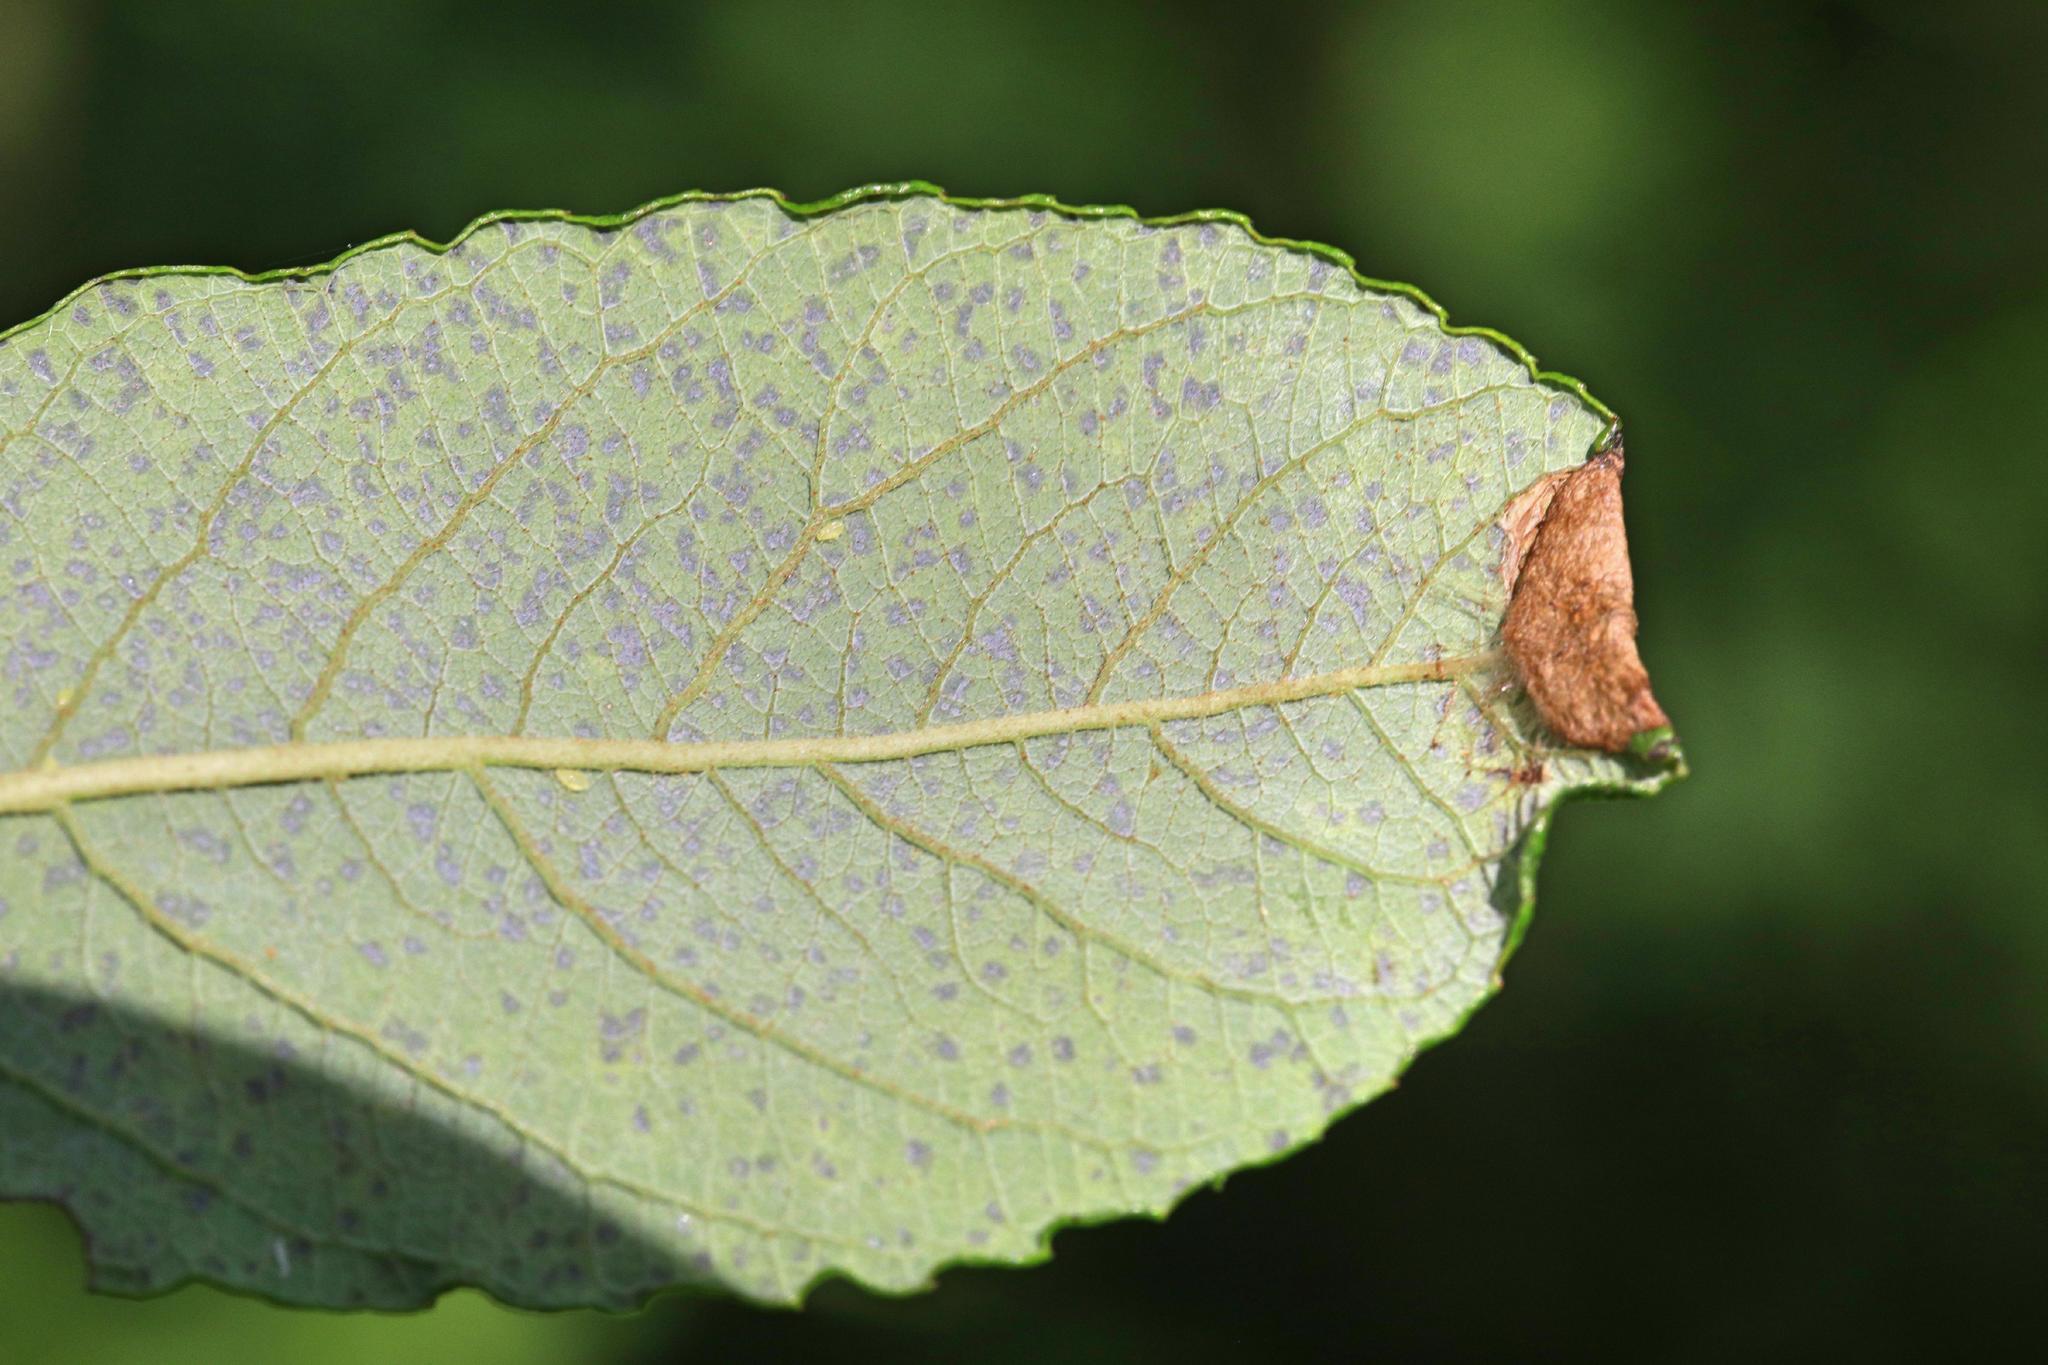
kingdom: Animalia
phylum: Arthropoda
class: Insecta
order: Lepidoptera
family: Gracillariidae
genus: Caloptilia
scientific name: Caloptilia stigmatella
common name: White-triangle slender
